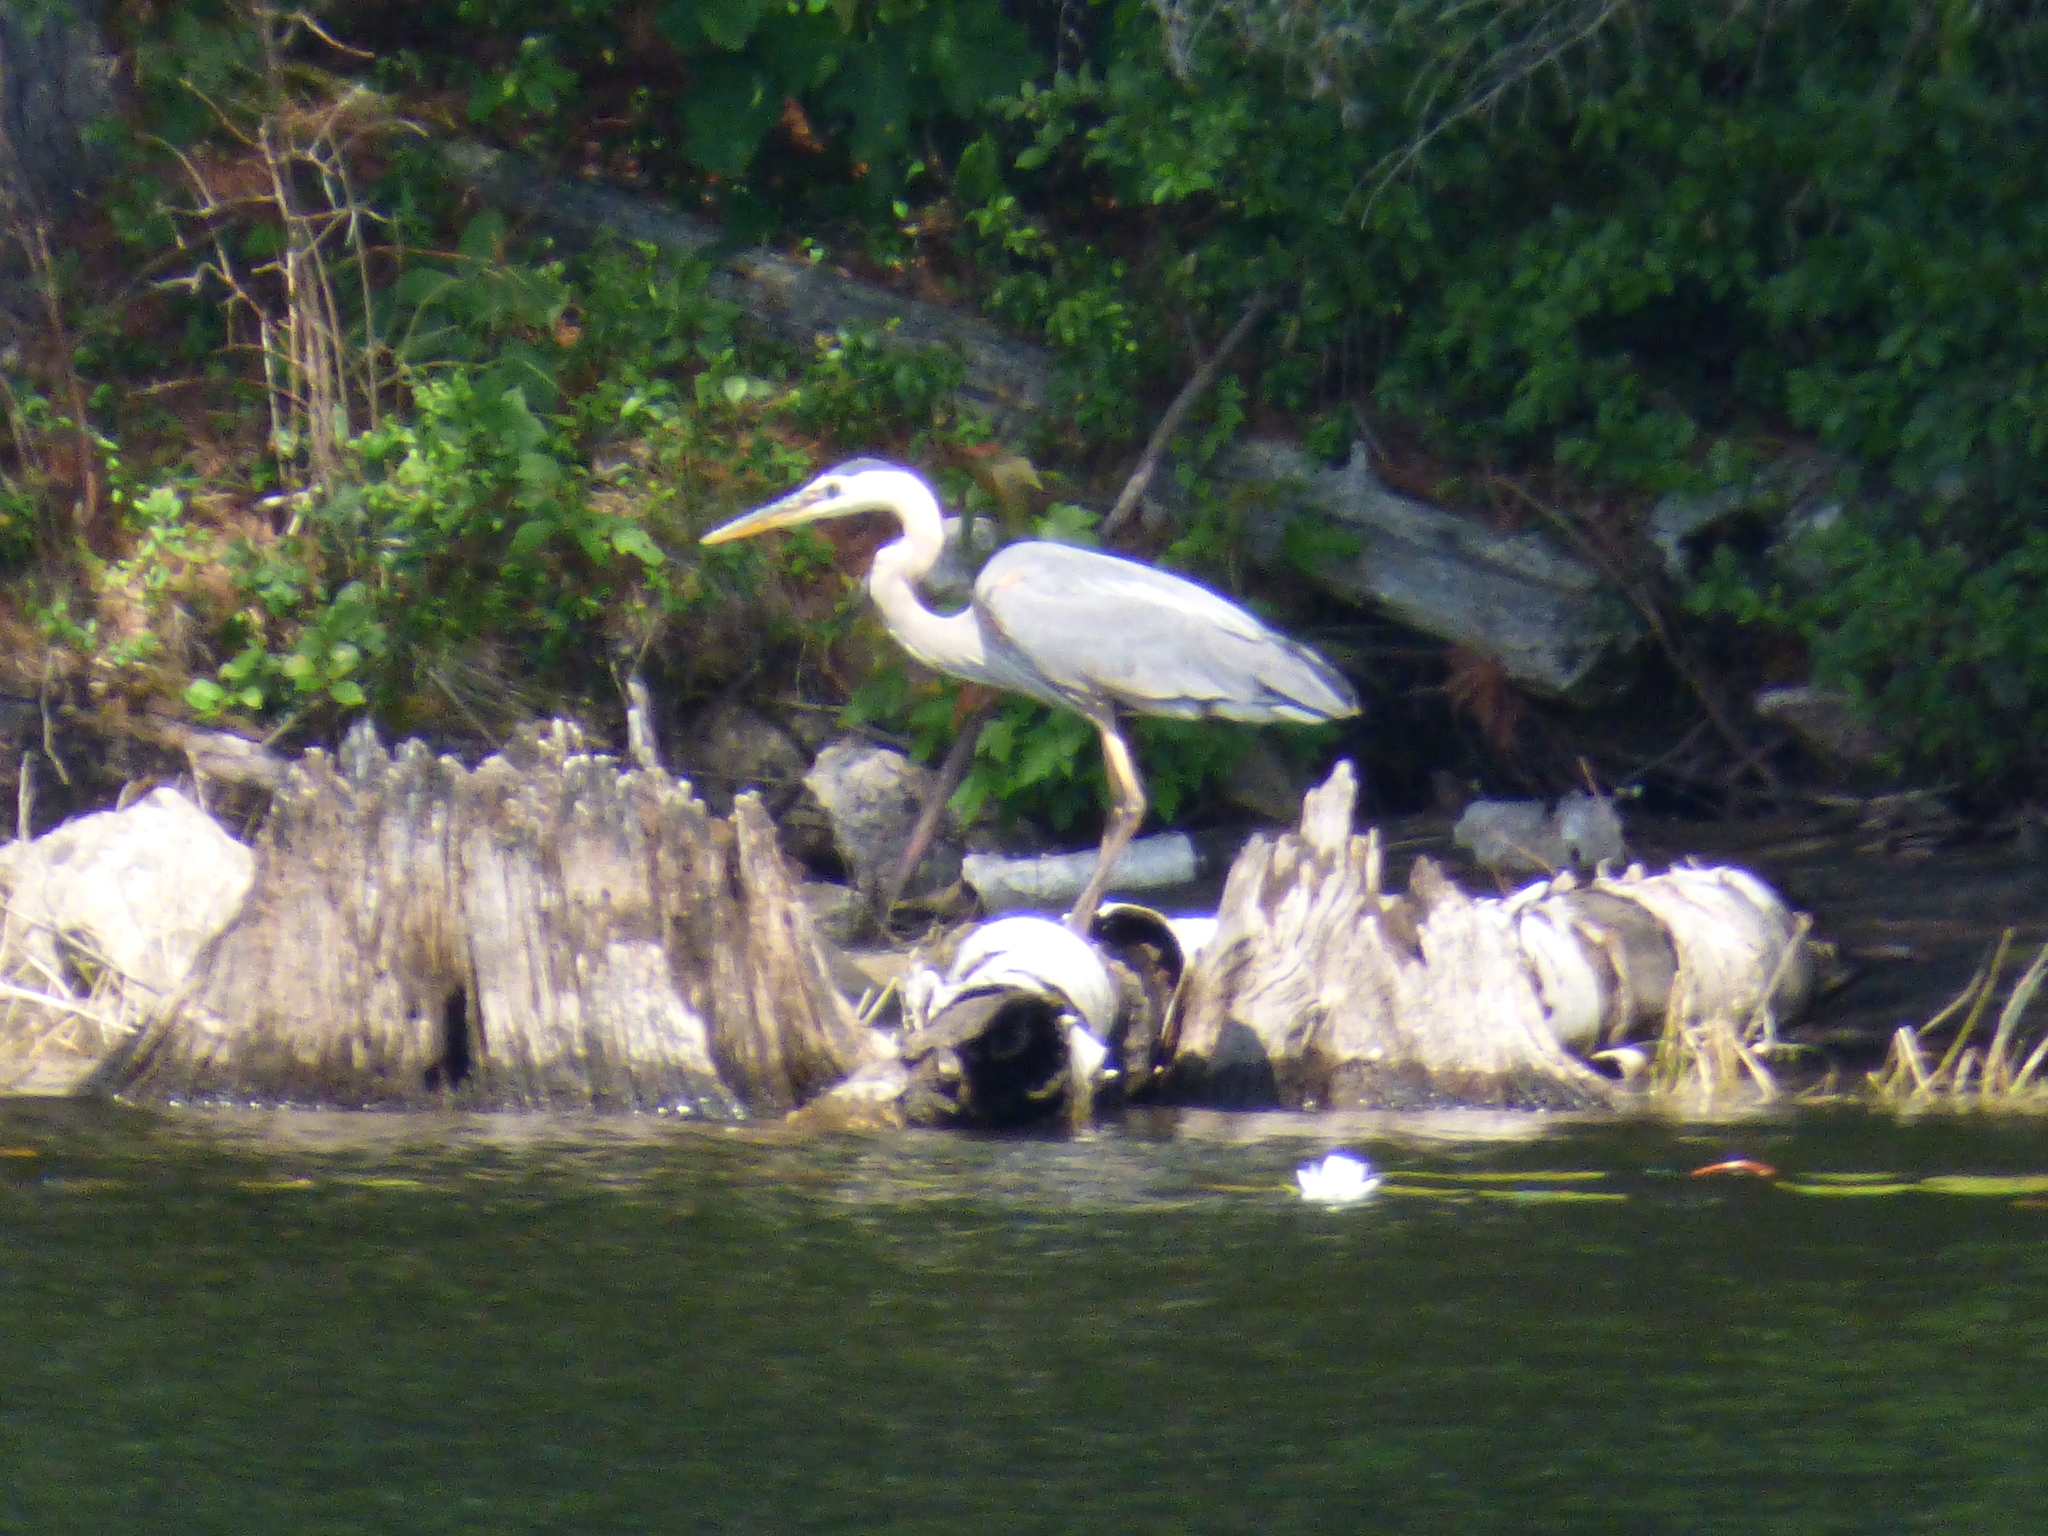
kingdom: Animalia
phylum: Chordata
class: Aves
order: Pelecaniformes
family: Ardeidae
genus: Ardea
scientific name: Ardea herodias
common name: Great blue heron
